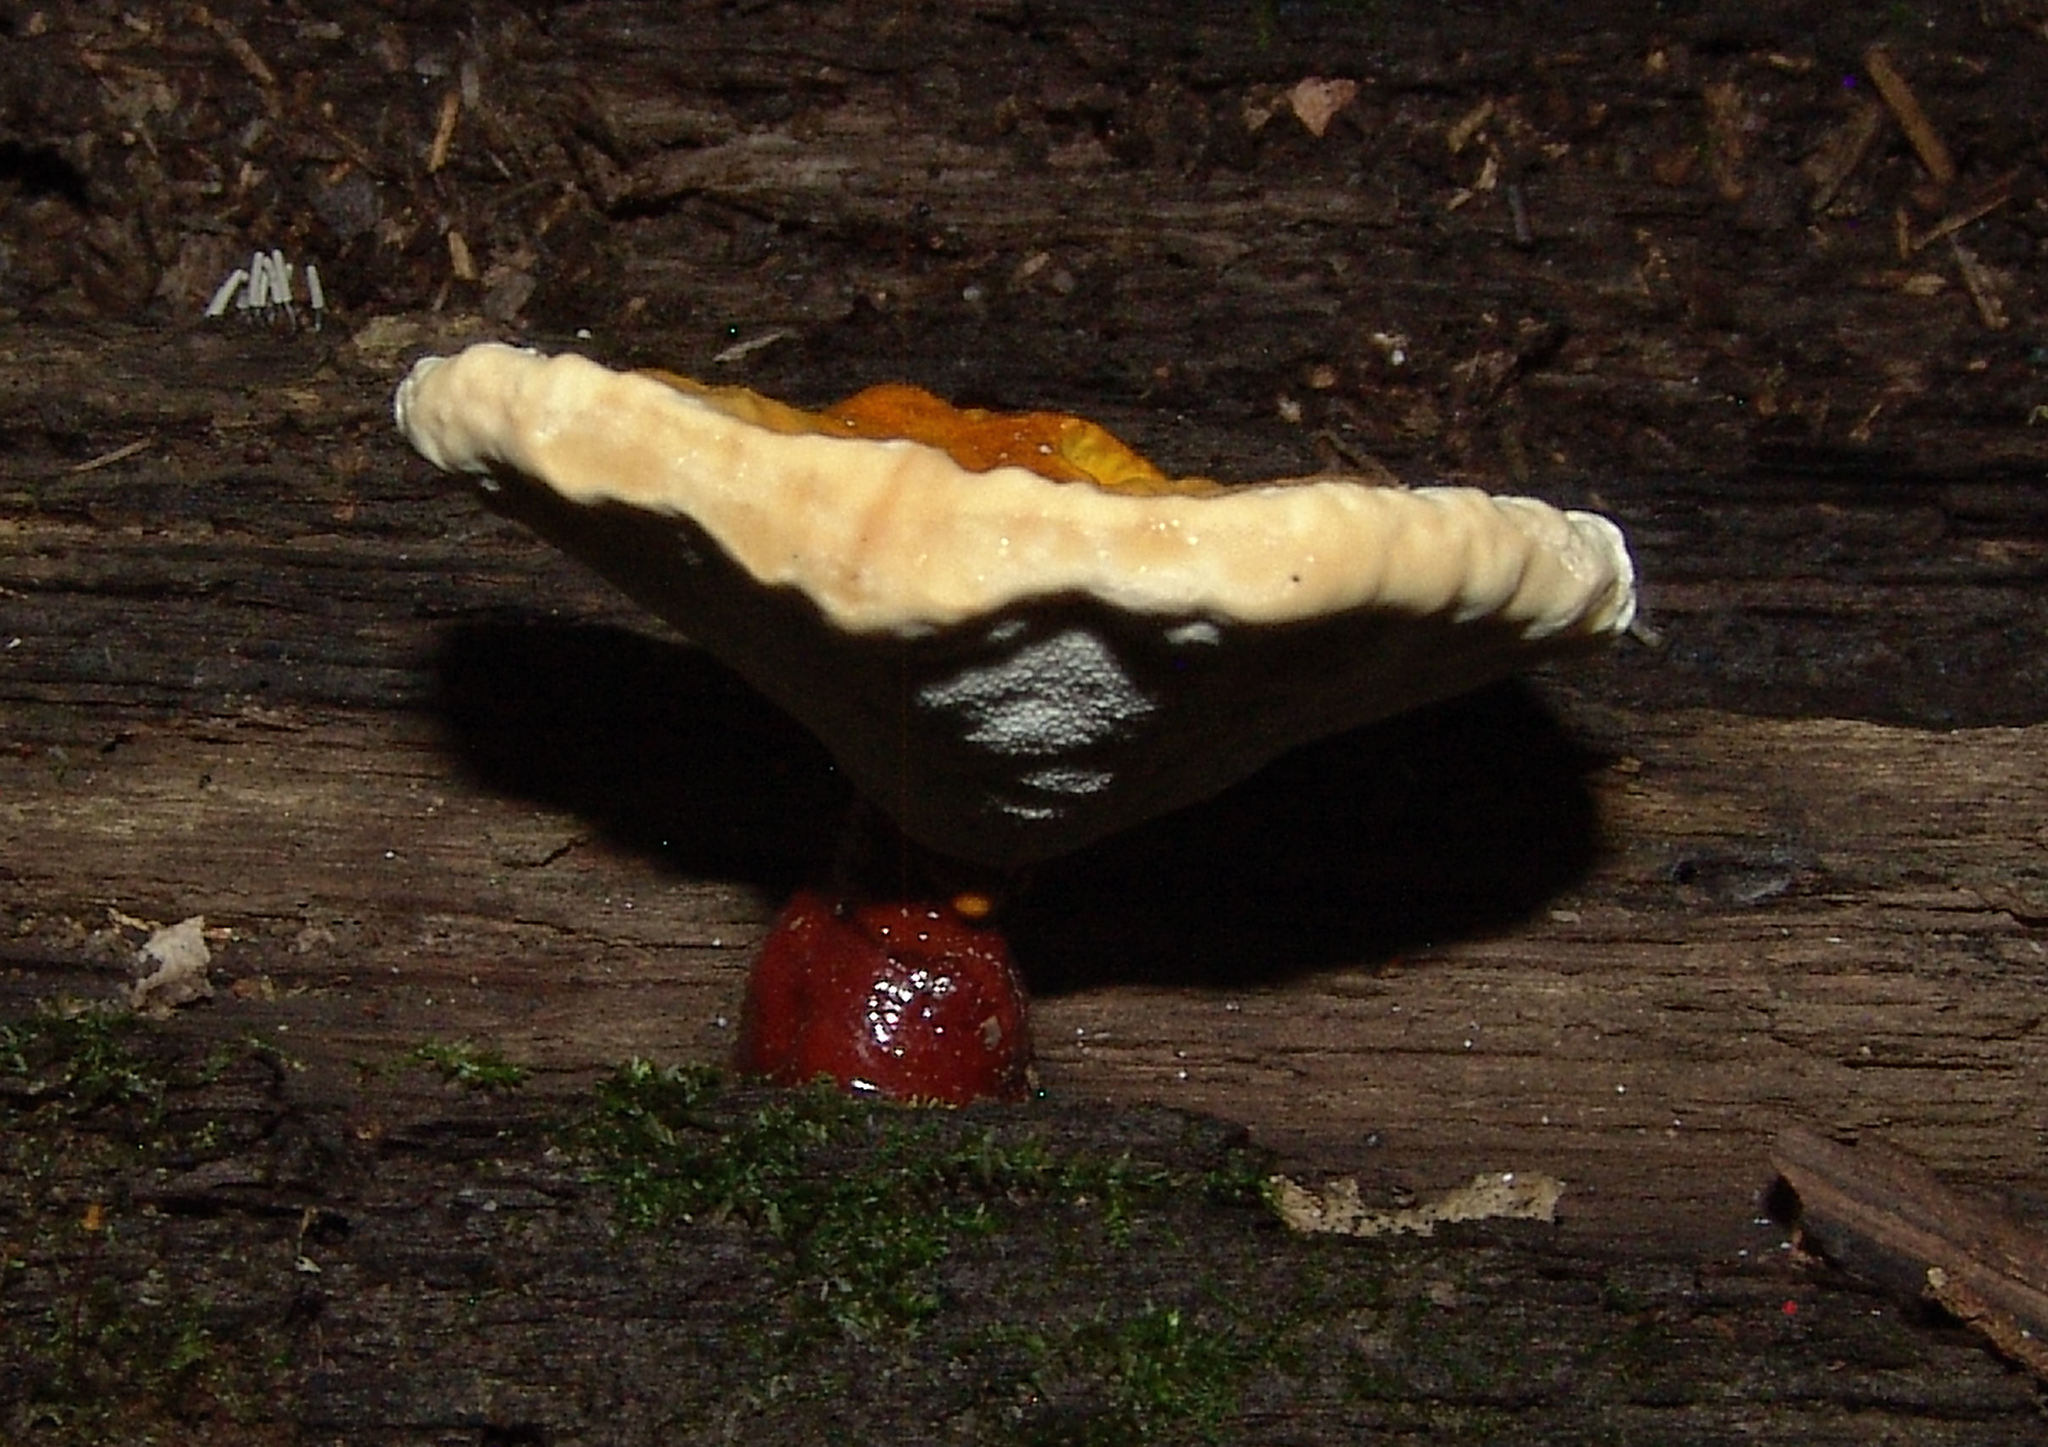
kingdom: Fungi
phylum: Basidiomycota
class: Agaricomycetes
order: Polyporales
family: Polyporaceae
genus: Ganoderma
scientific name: Ganoderma resinaceum
